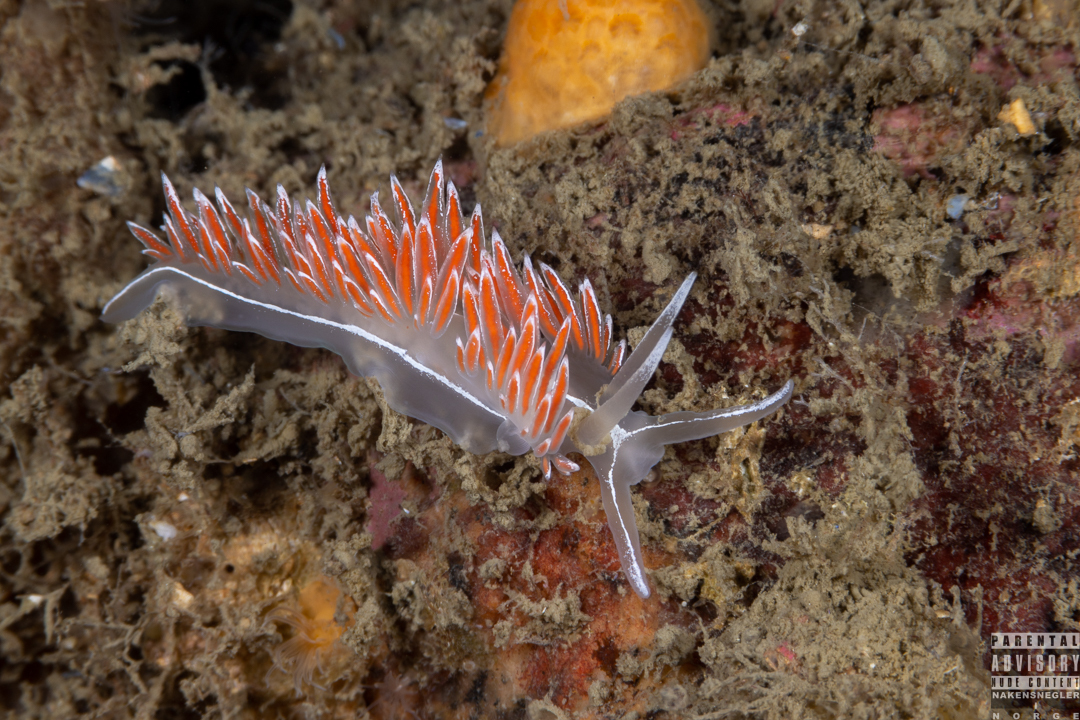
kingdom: Animalia
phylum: Mollusca
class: Gastropoda
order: Nudibranchia
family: Coryphellidae
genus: Coryphella
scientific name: Coryphella lineata
